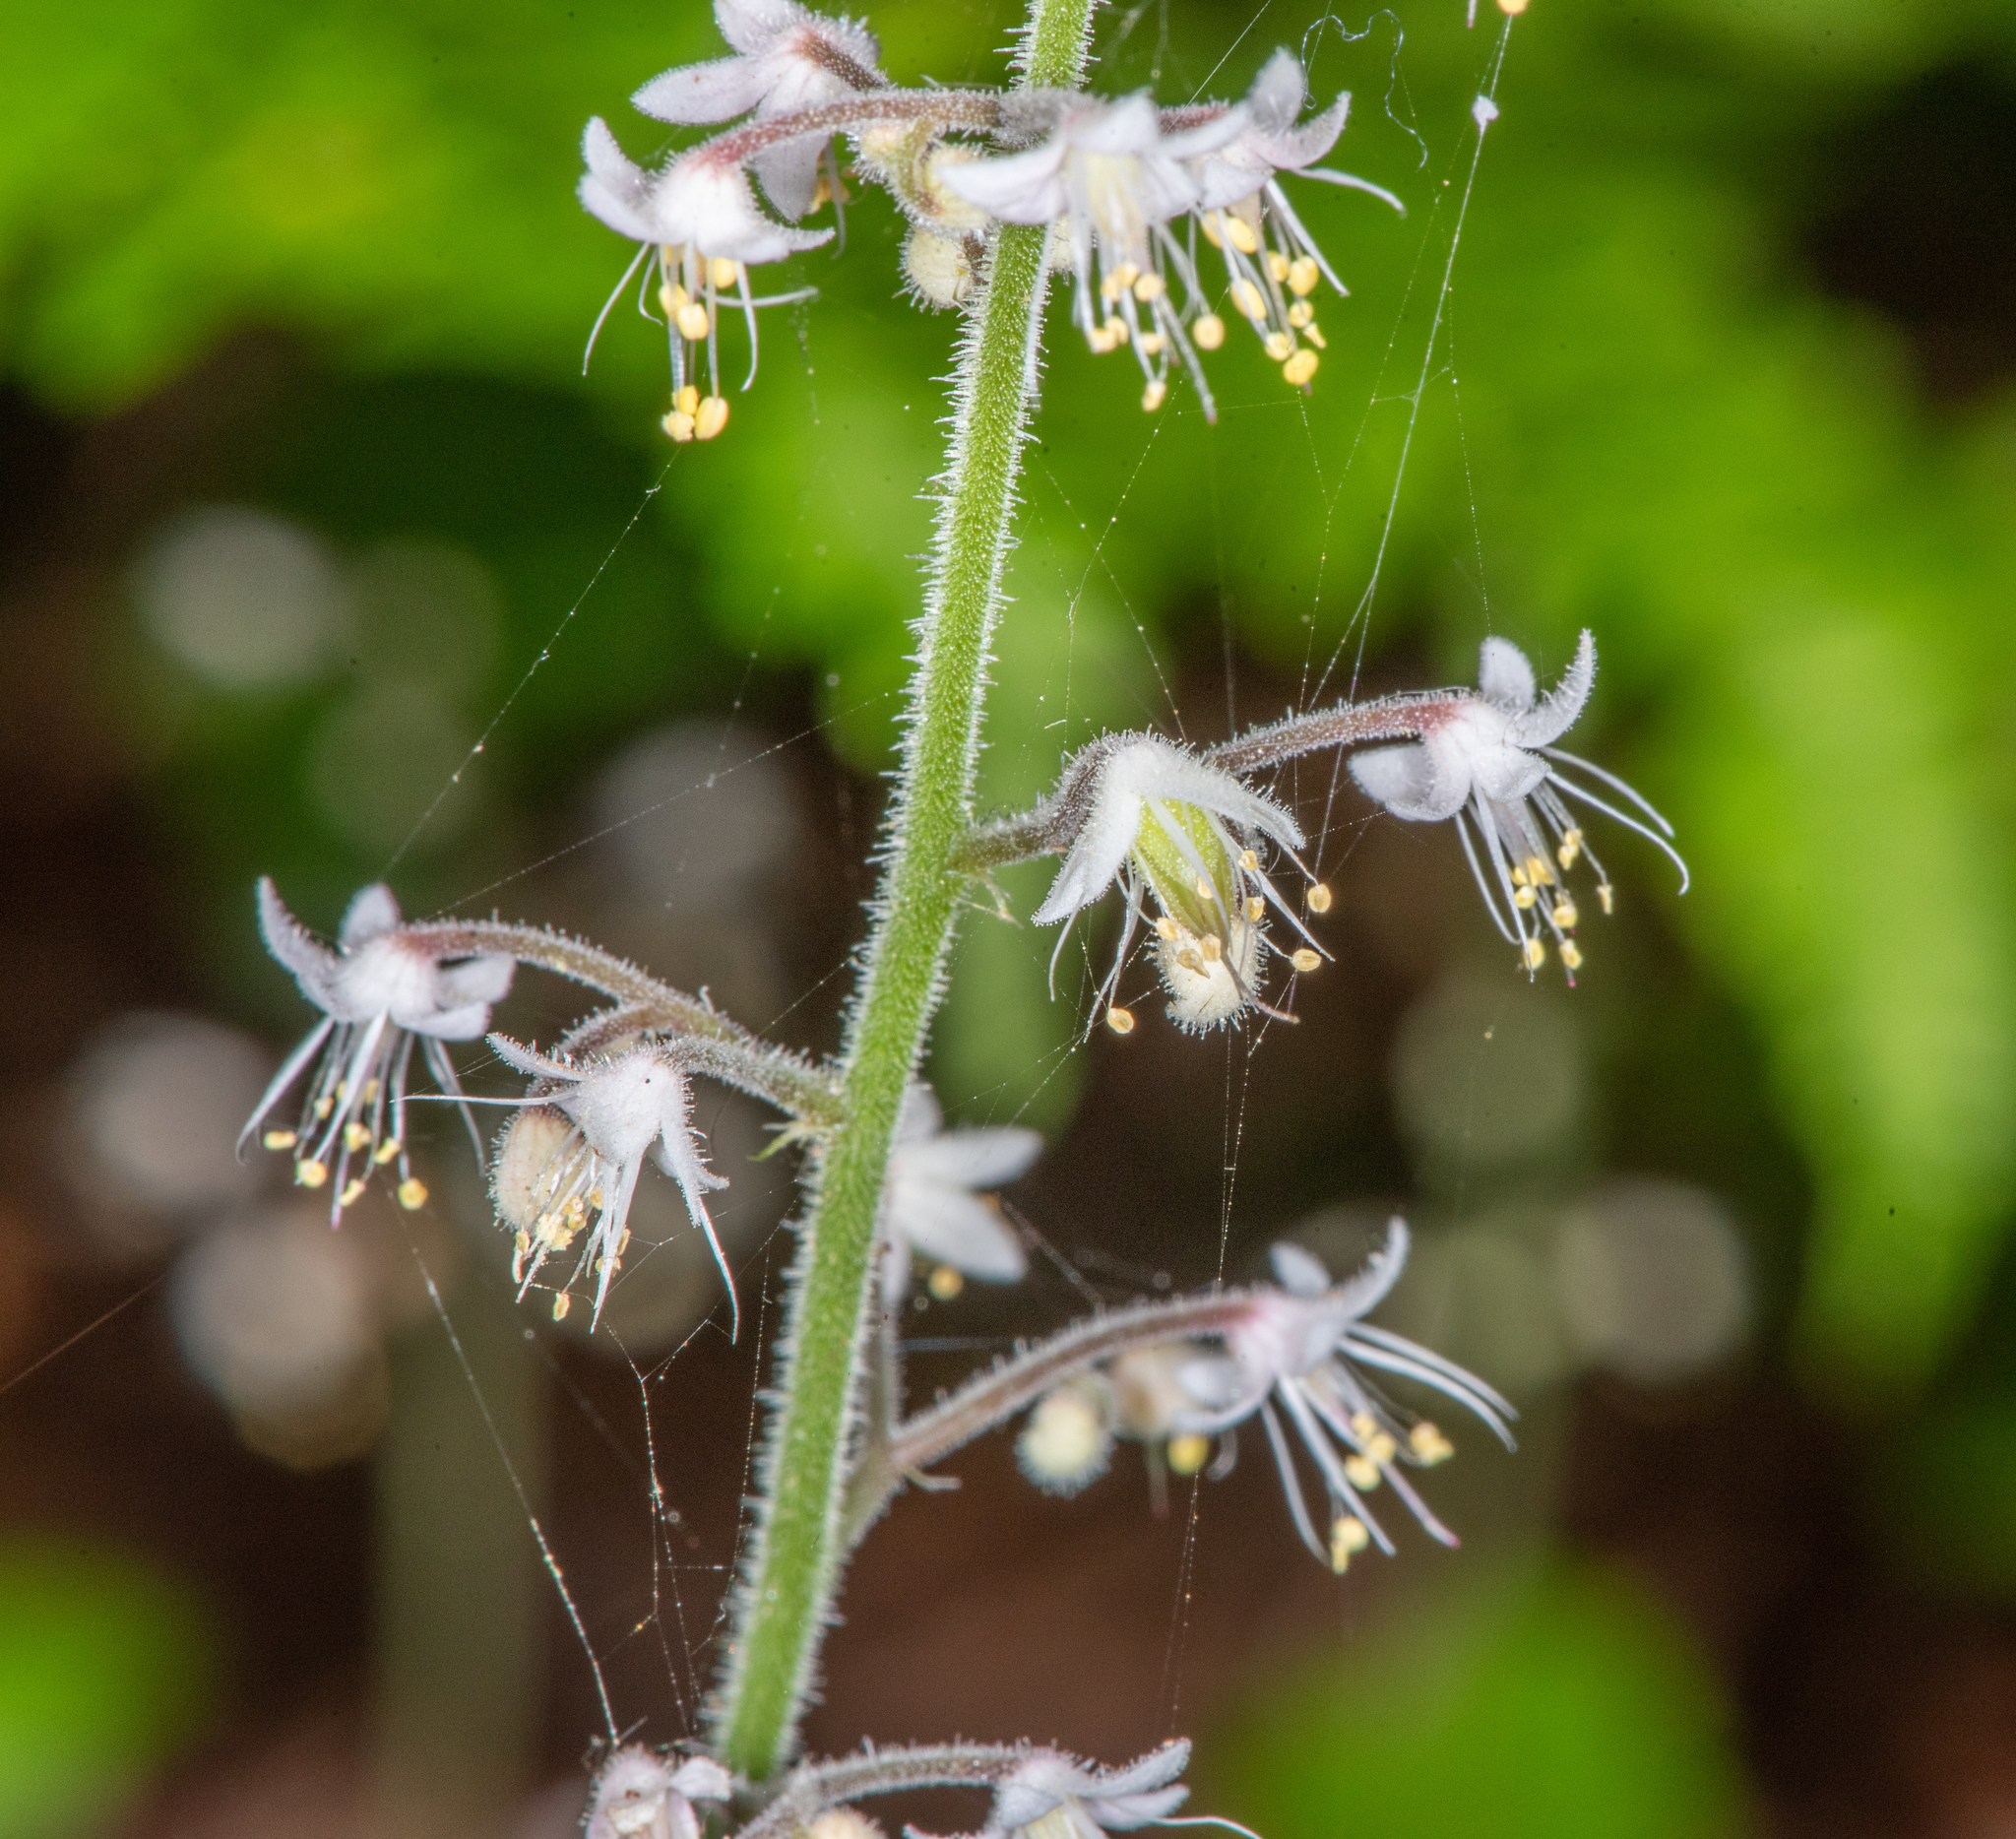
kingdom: Plantae
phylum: Tracheophyta
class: Magnoliopsida
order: Saxifragales
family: Saxifragaceae
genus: Tiarella
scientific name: Tiarella trifoliata
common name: Sugar-scoop
